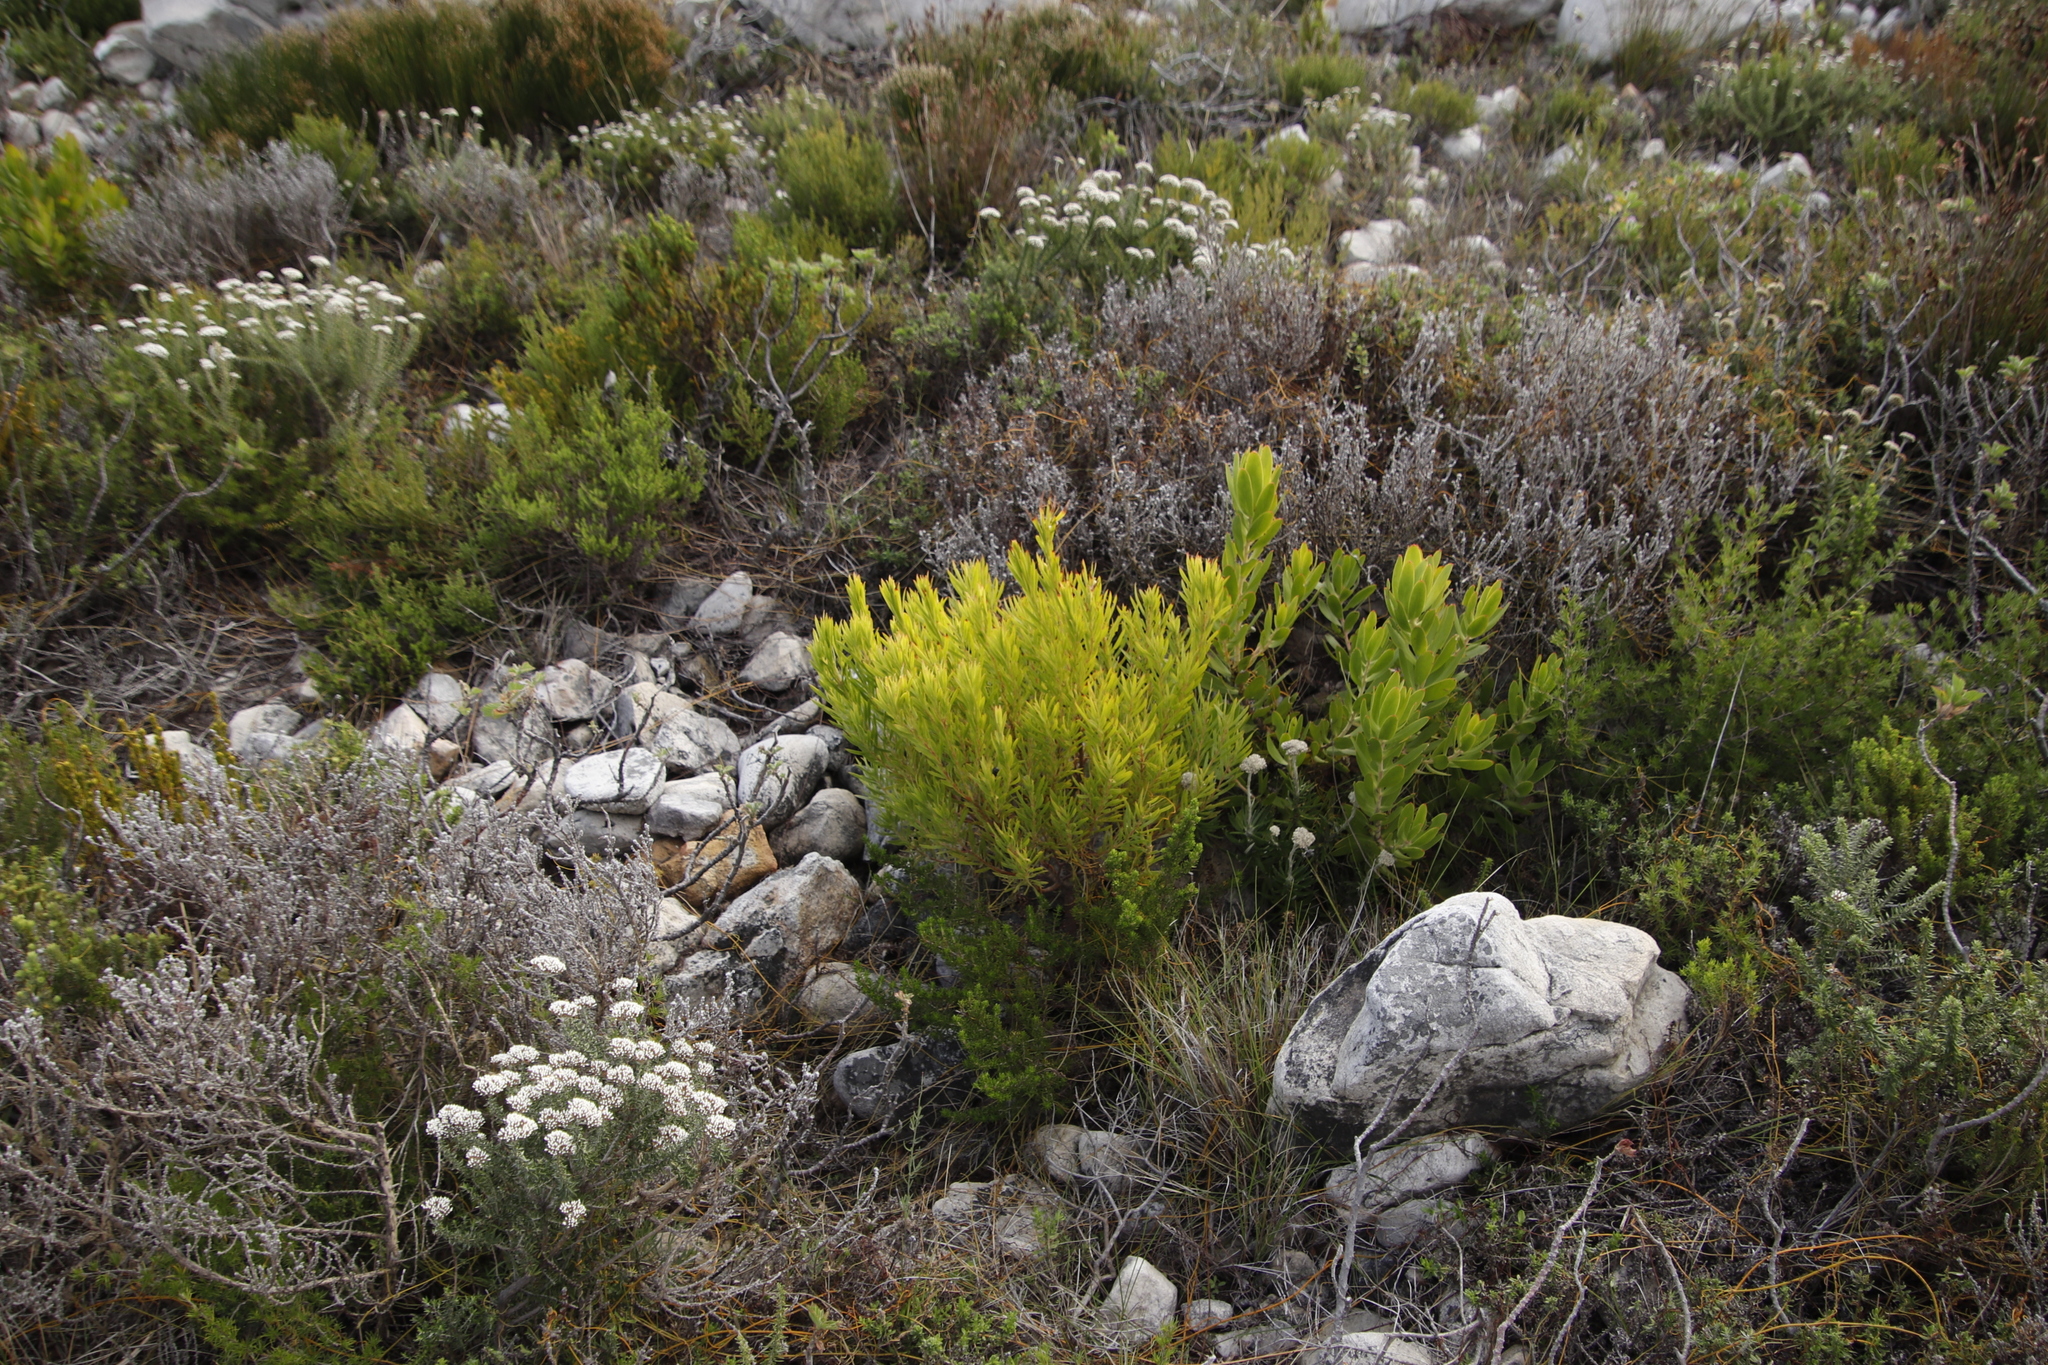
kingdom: Plantae
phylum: Tracheophyta
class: Magnoliopsida
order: Proteales
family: Proteaceae
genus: Leucadendron
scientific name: Leucadendron laureolum
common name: Golden sunshinebush
